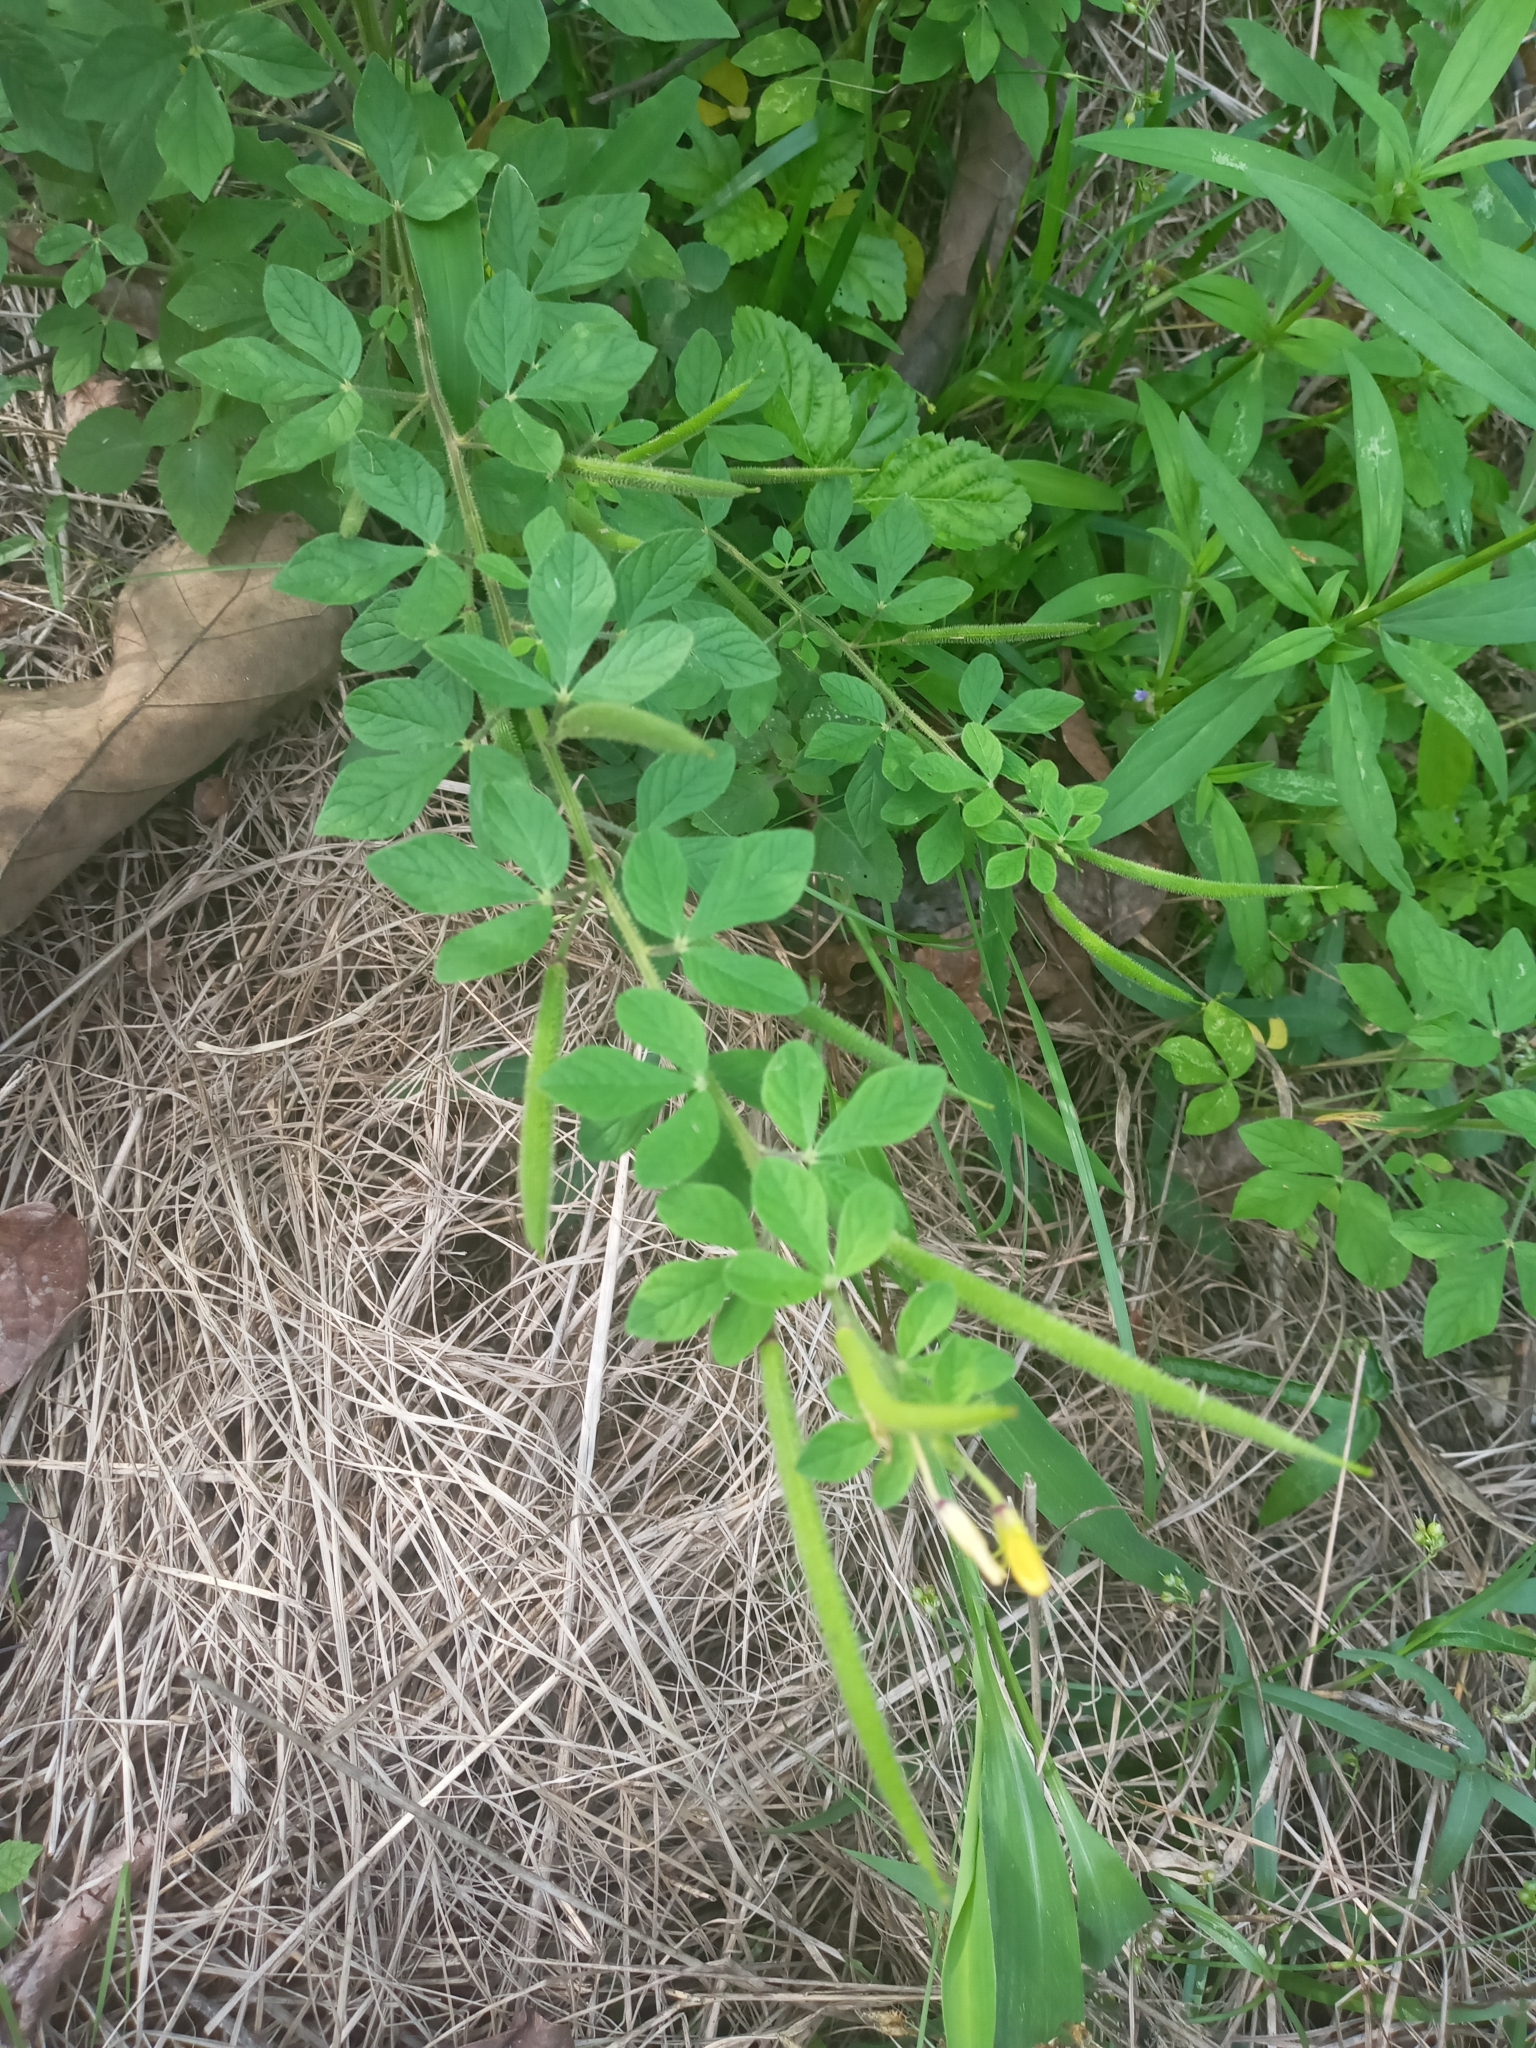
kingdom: Plantae
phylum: Tracheophyta
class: Magnoliopsida
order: Brassicales
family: Cleomaceae
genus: Arivela
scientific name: Arivela viscosa
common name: Asian spiderflower
